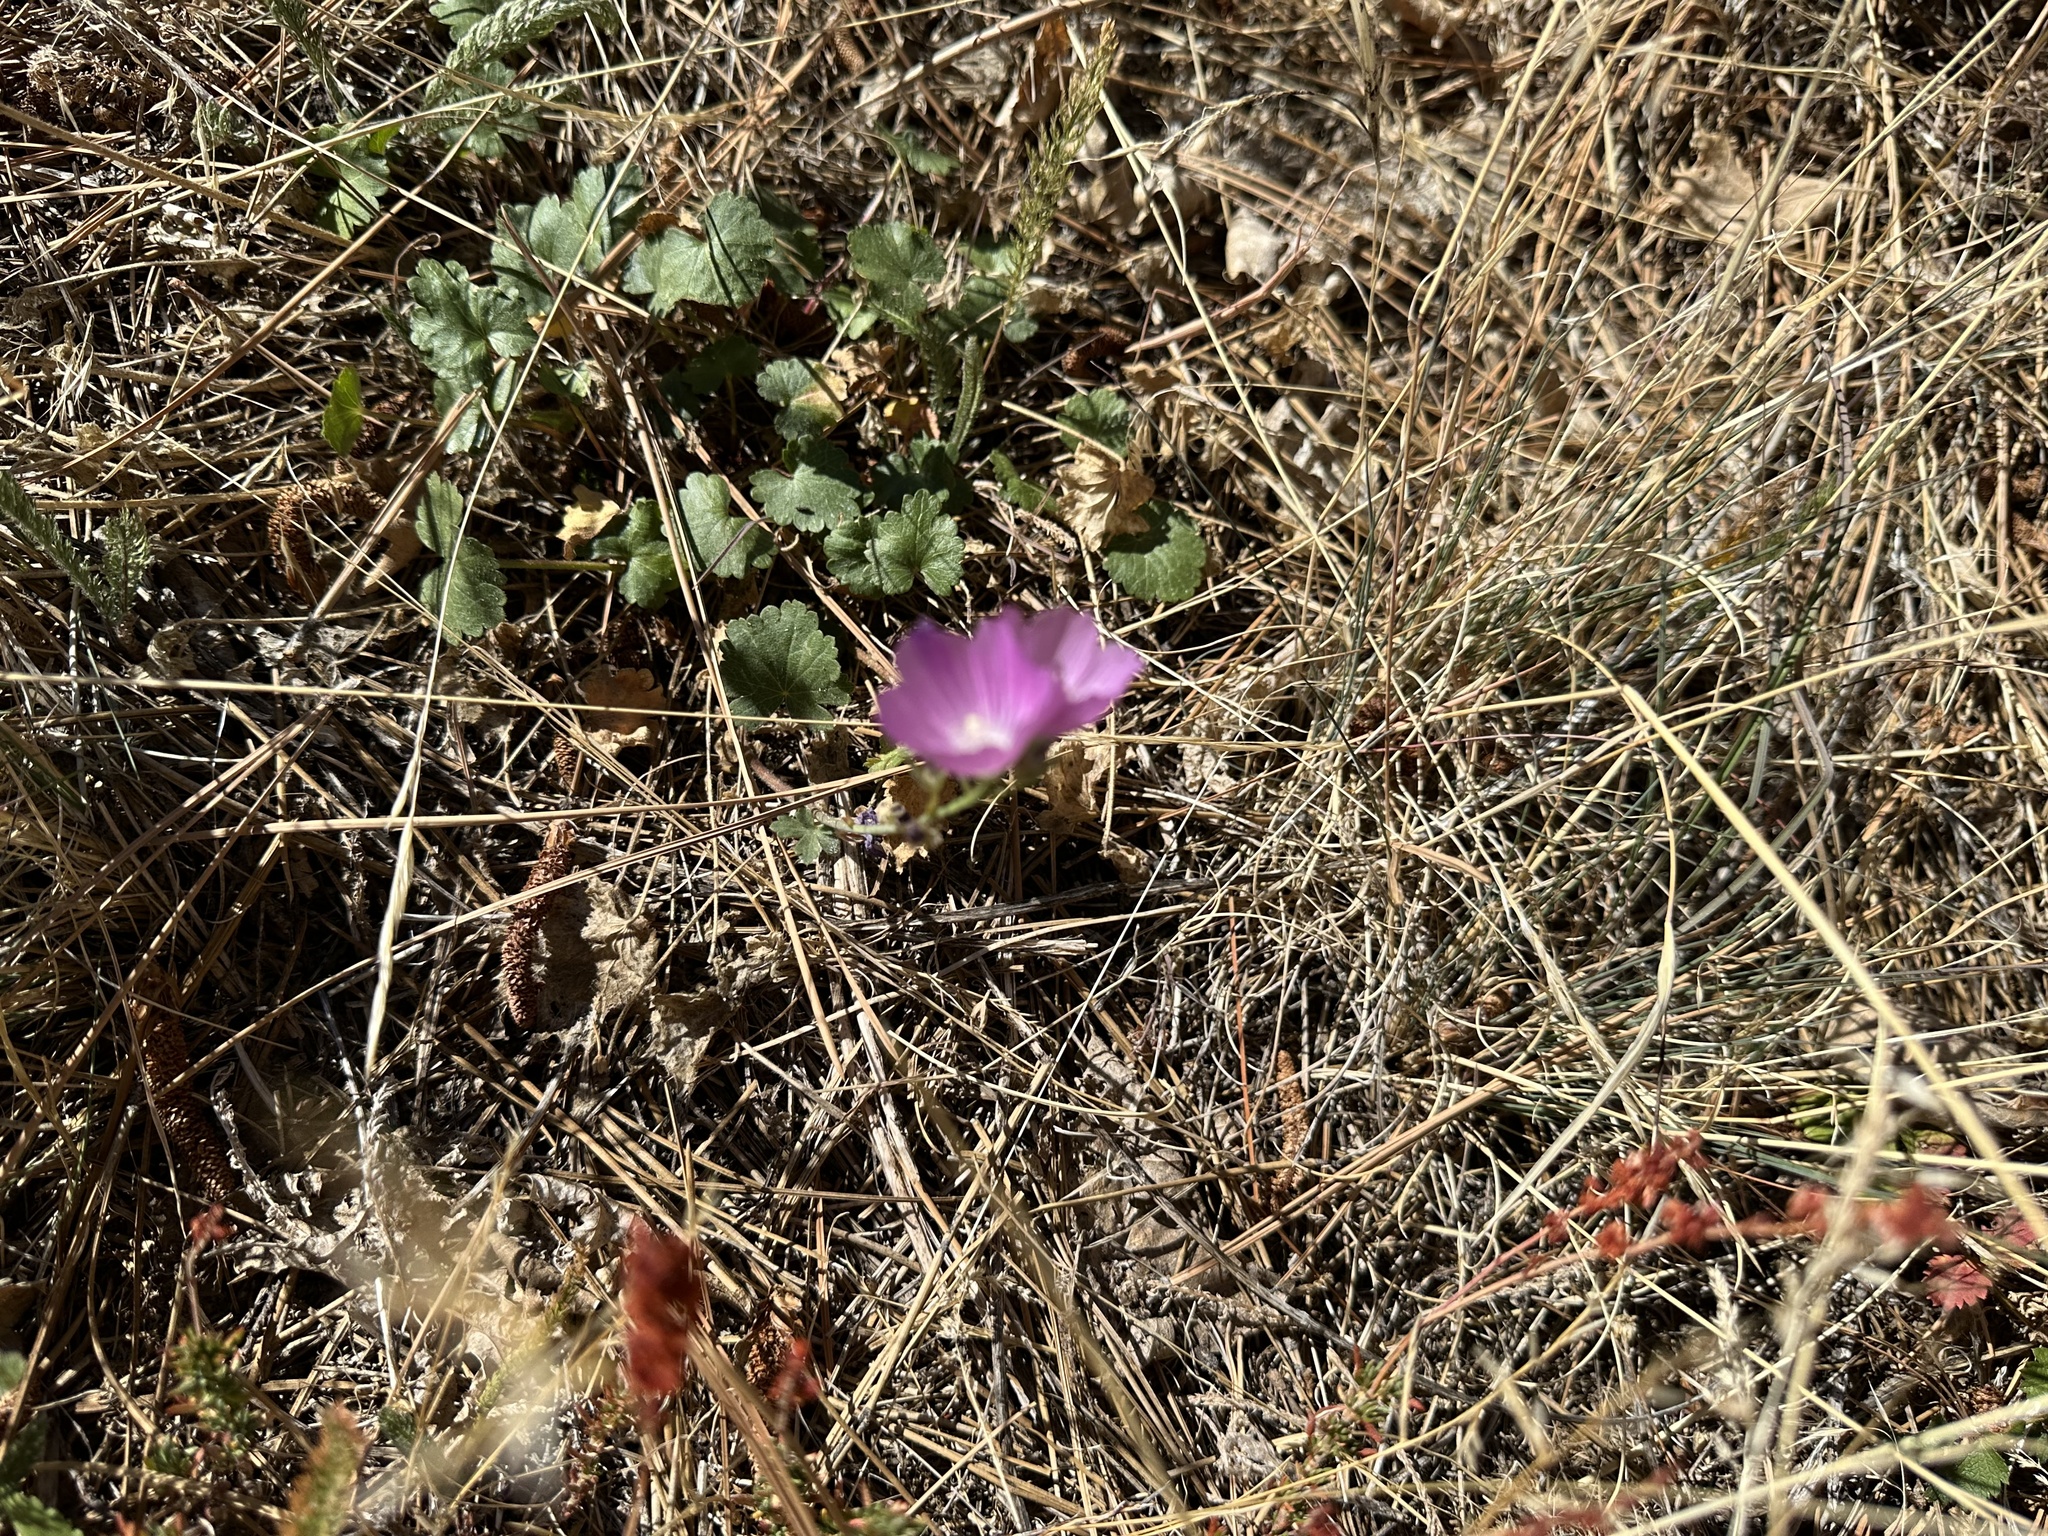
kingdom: Plantae
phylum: Tracheophyta
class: Magnoliopsida
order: Malvales
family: Malvaceae
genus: Sidalcea
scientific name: Sidalcea sparsifolia
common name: Southern checkerbloom
